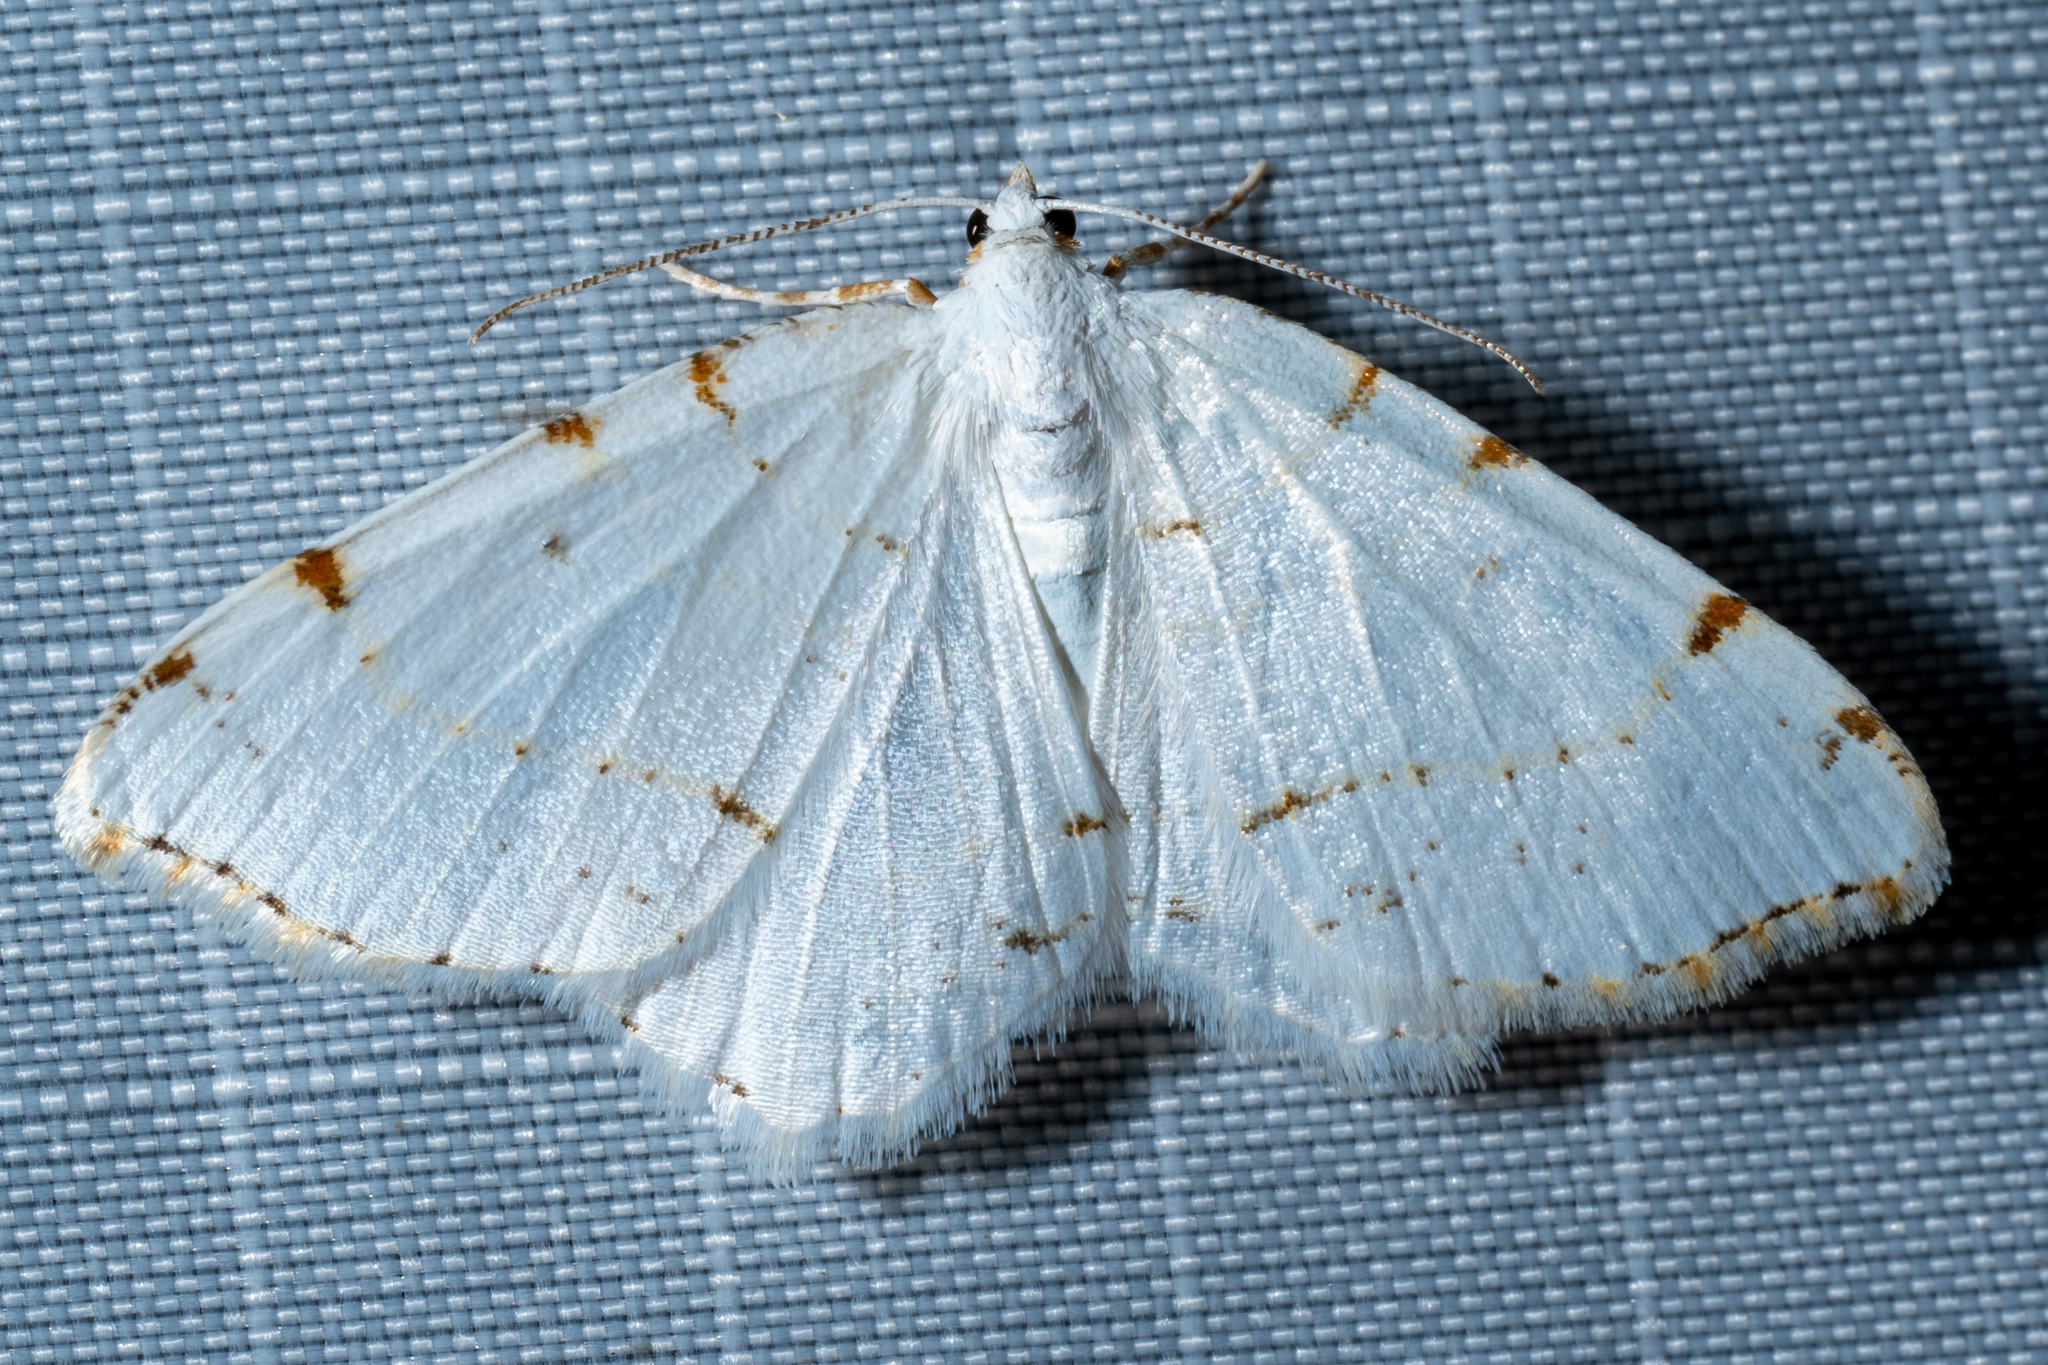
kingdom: Animalia
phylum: Arthropoda
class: Insecta
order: Lepidoptera
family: Geometridae
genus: Macaria
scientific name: Macaria pustularia
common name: Lesser maple spanworm moth
